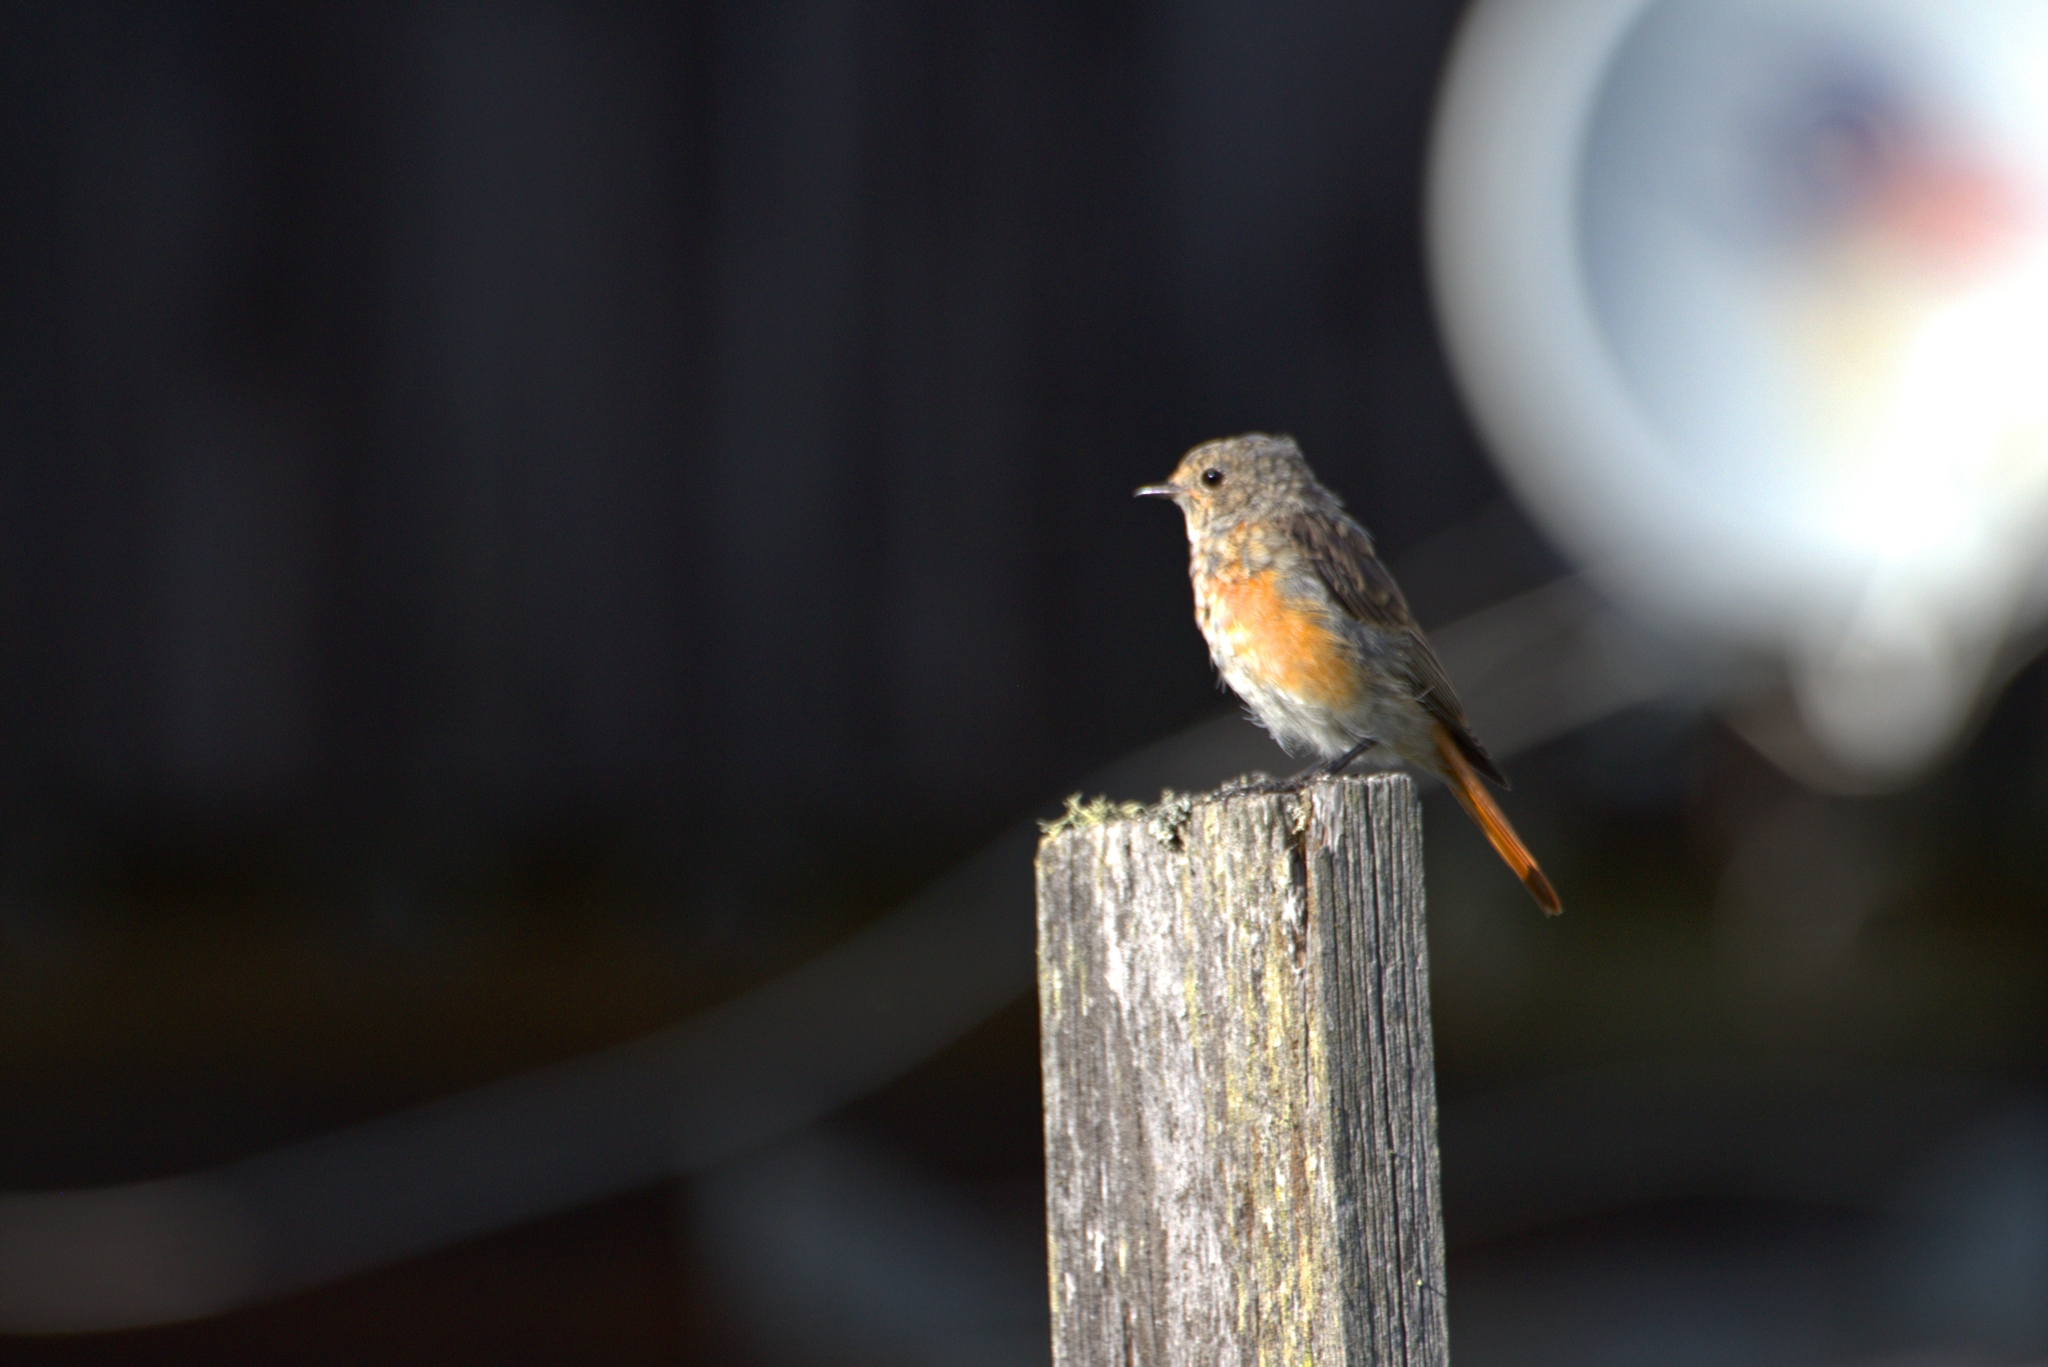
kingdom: Animalia
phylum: Chordata
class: Aves
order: Passeriformes
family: Muscicapidae
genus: Phoenicurus
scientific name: Phoenicurus phoenicurus
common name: Common redstart
